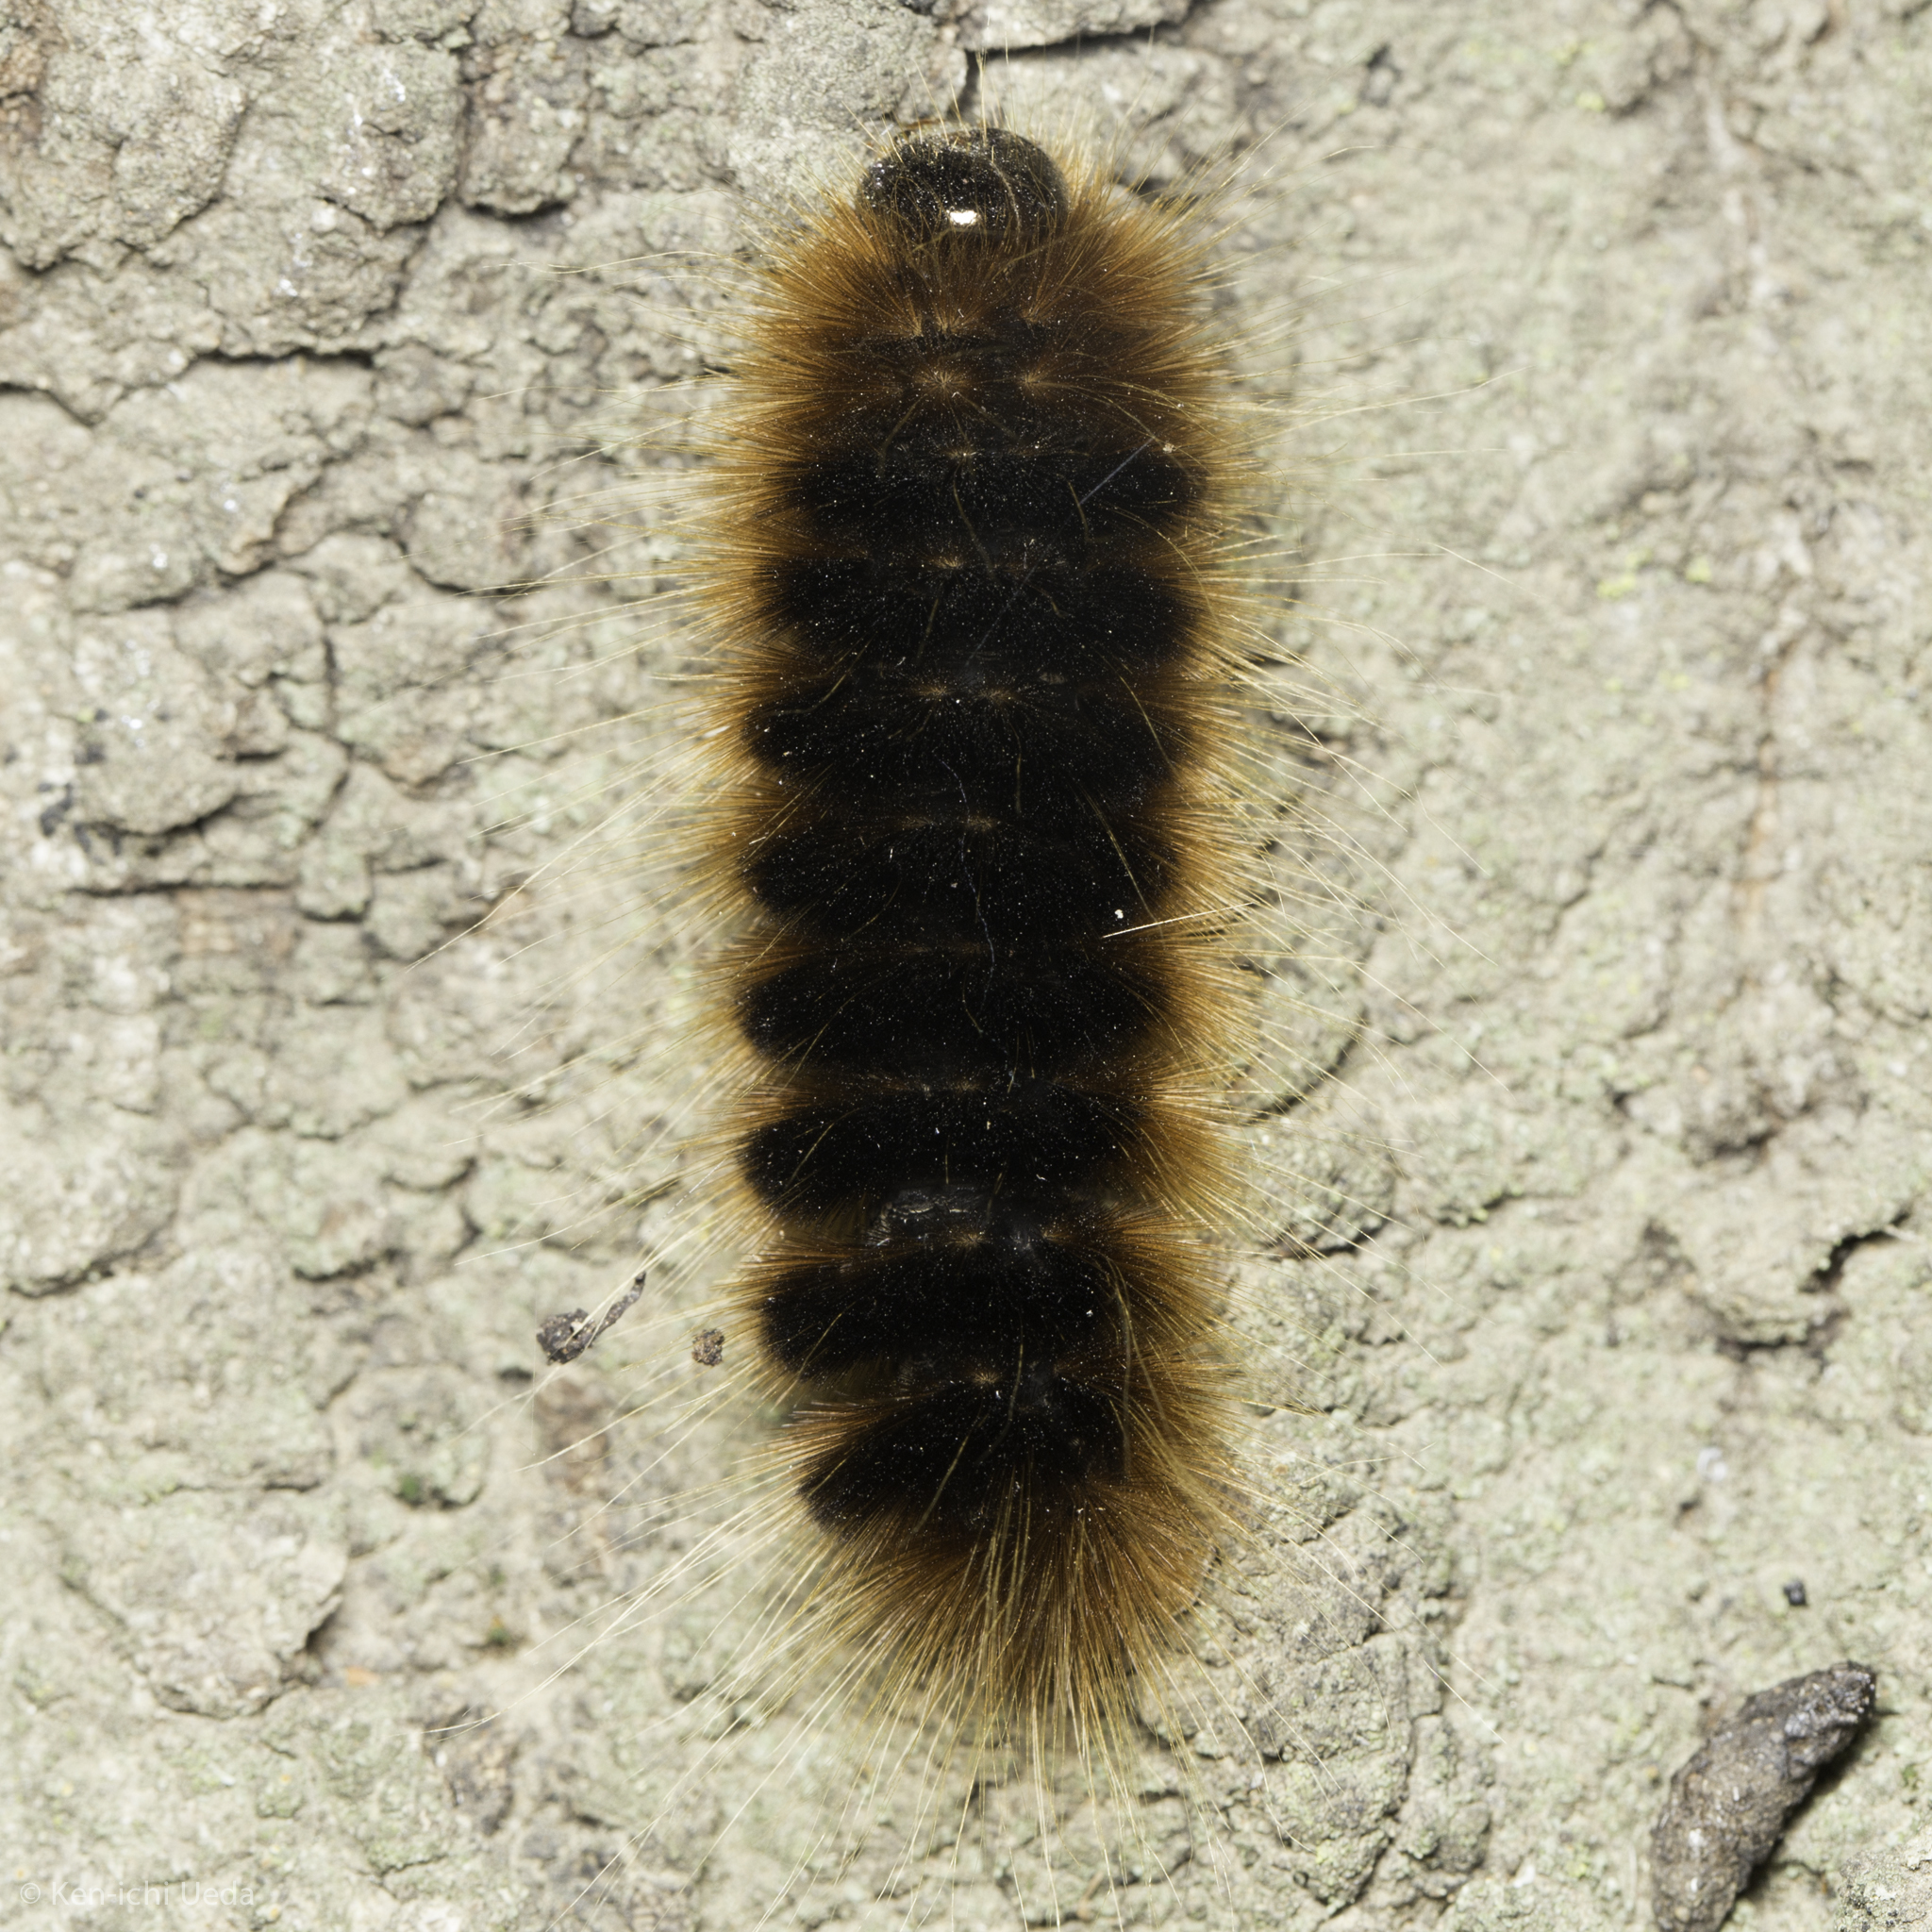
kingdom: Animalia
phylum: Arthropoda
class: Insecta
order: Lepidoptera
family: Erebidae
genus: Hemihyalea
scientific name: Hemihyalea edwardsii
